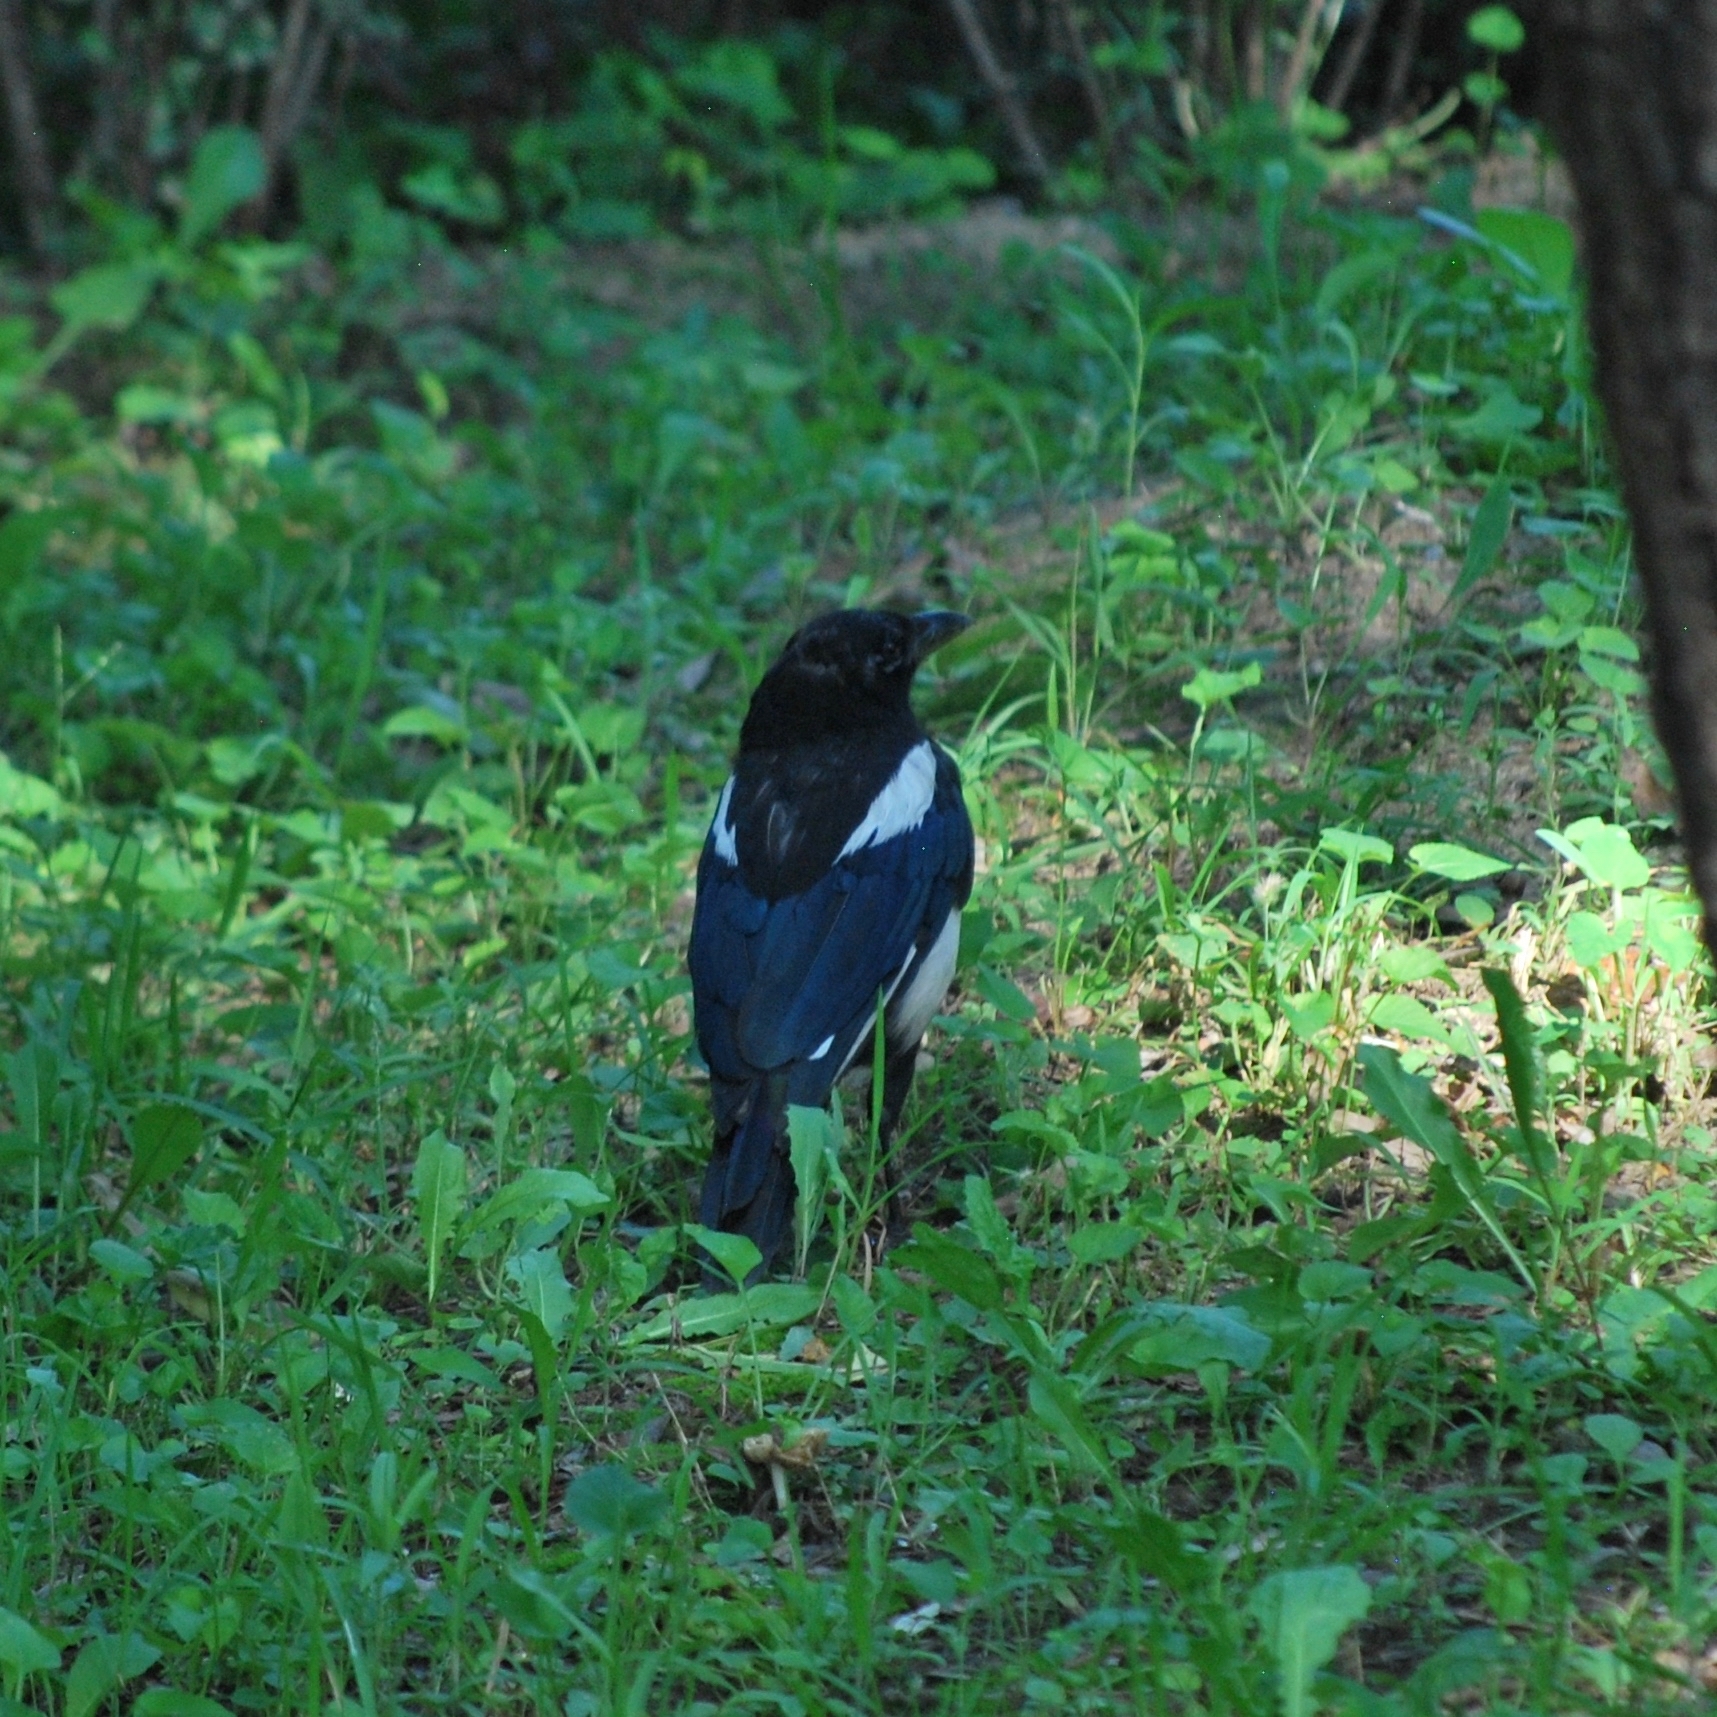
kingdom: Animalia
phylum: Chordata
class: Aves
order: Passeriformes
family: Corvidae
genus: Pica
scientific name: Pica serica
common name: Oriental magpie
